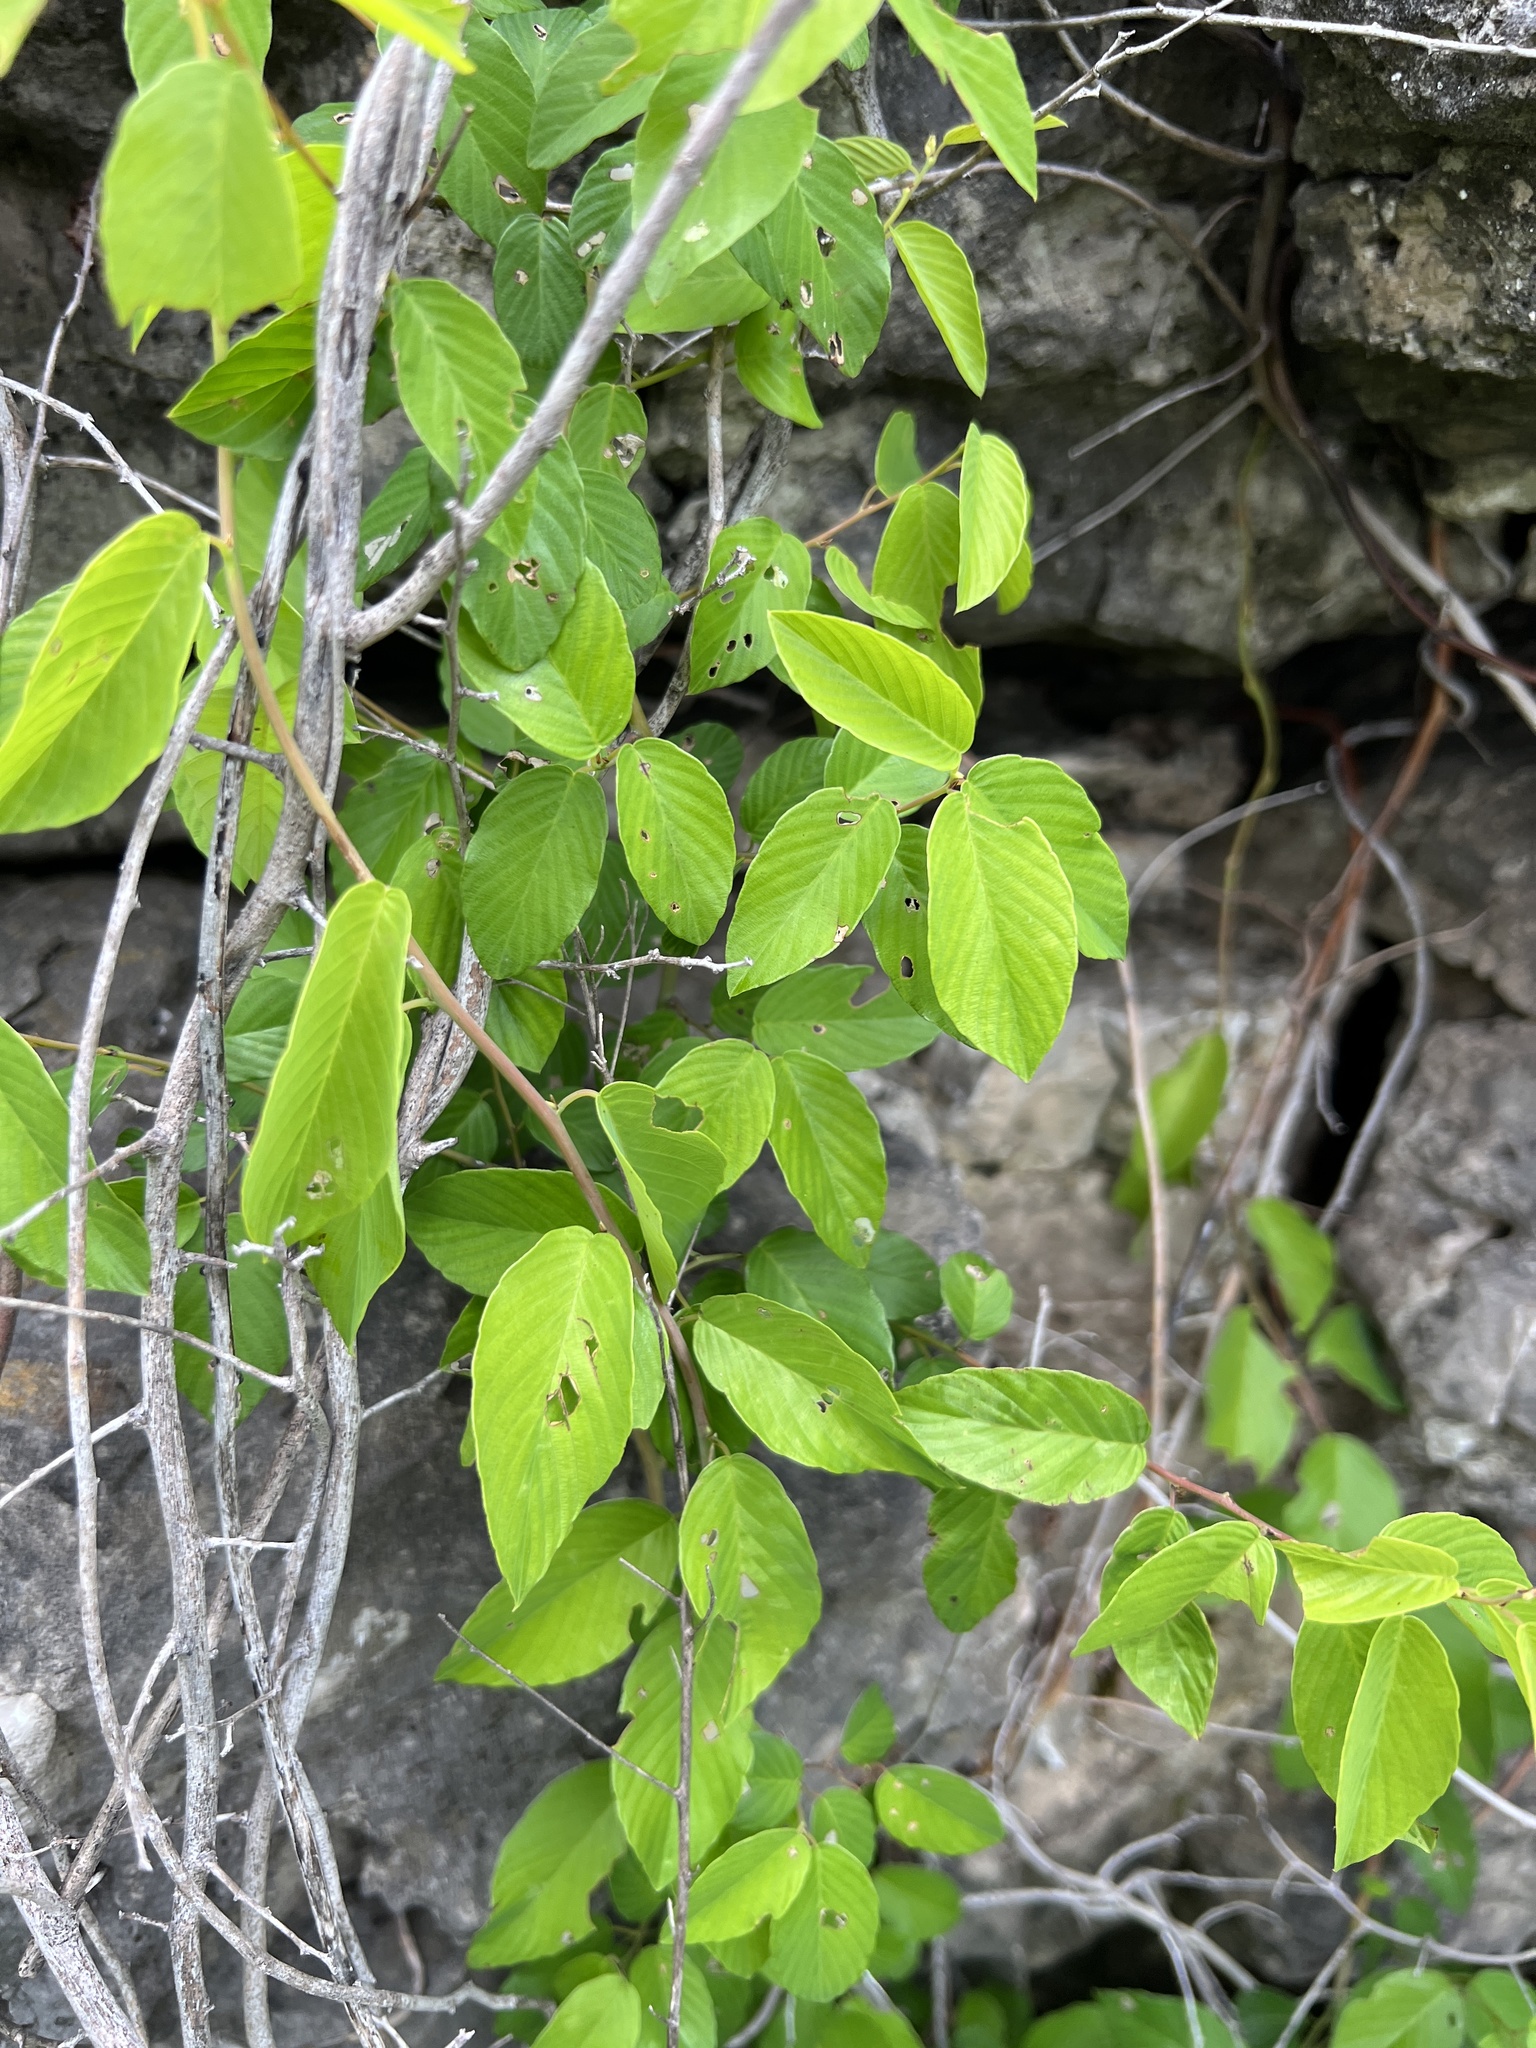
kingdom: Plantae
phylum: Tracheophyta
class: Magnoliopsida
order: Rosales
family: Rhamnaceae
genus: Berchemia
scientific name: Berchemia scandens
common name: Supplejack
